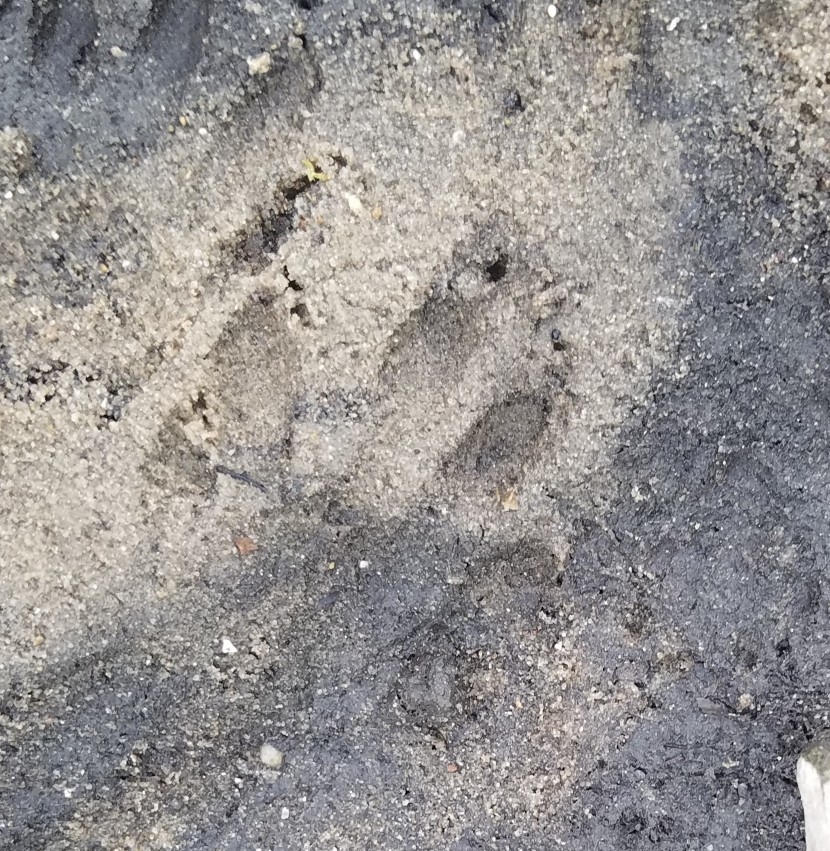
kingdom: Animalia
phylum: Chordata
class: Mammalia
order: Carnivora
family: Procyonidae
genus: Procyon
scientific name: Procyon lotor
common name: Raccoon
